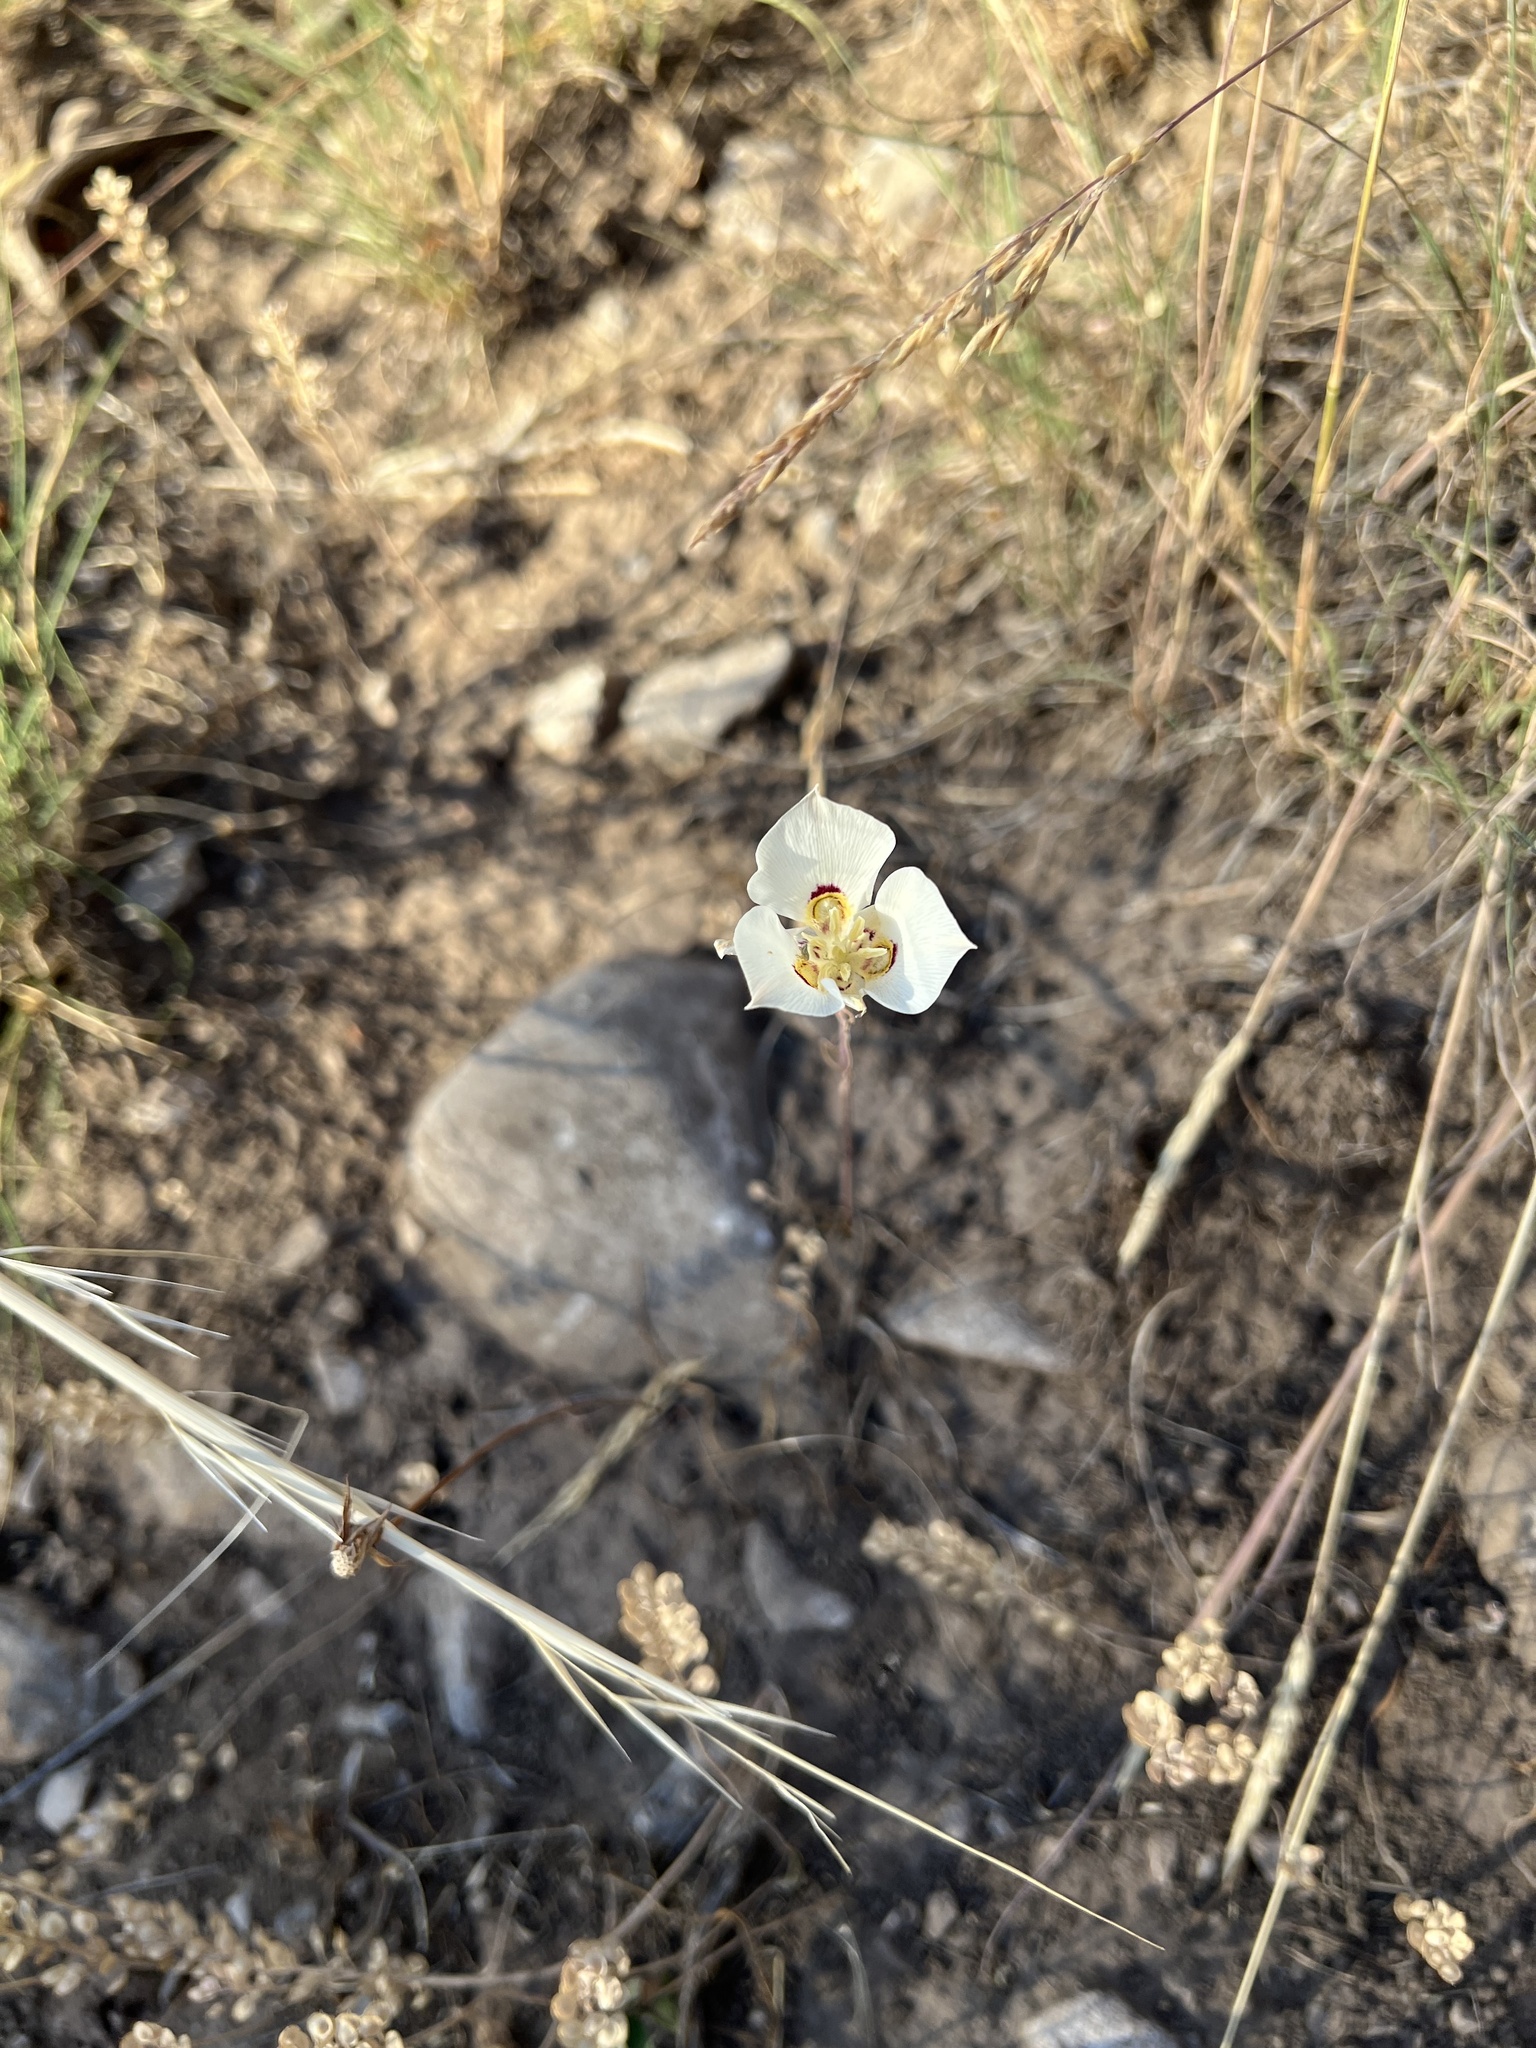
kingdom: Plantae
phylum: Tracheophyta
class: Liliopsida
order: Liliales
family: Liliaceae
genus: Calochortus
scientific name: Calochortus nuttallii
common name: Sego-lily
